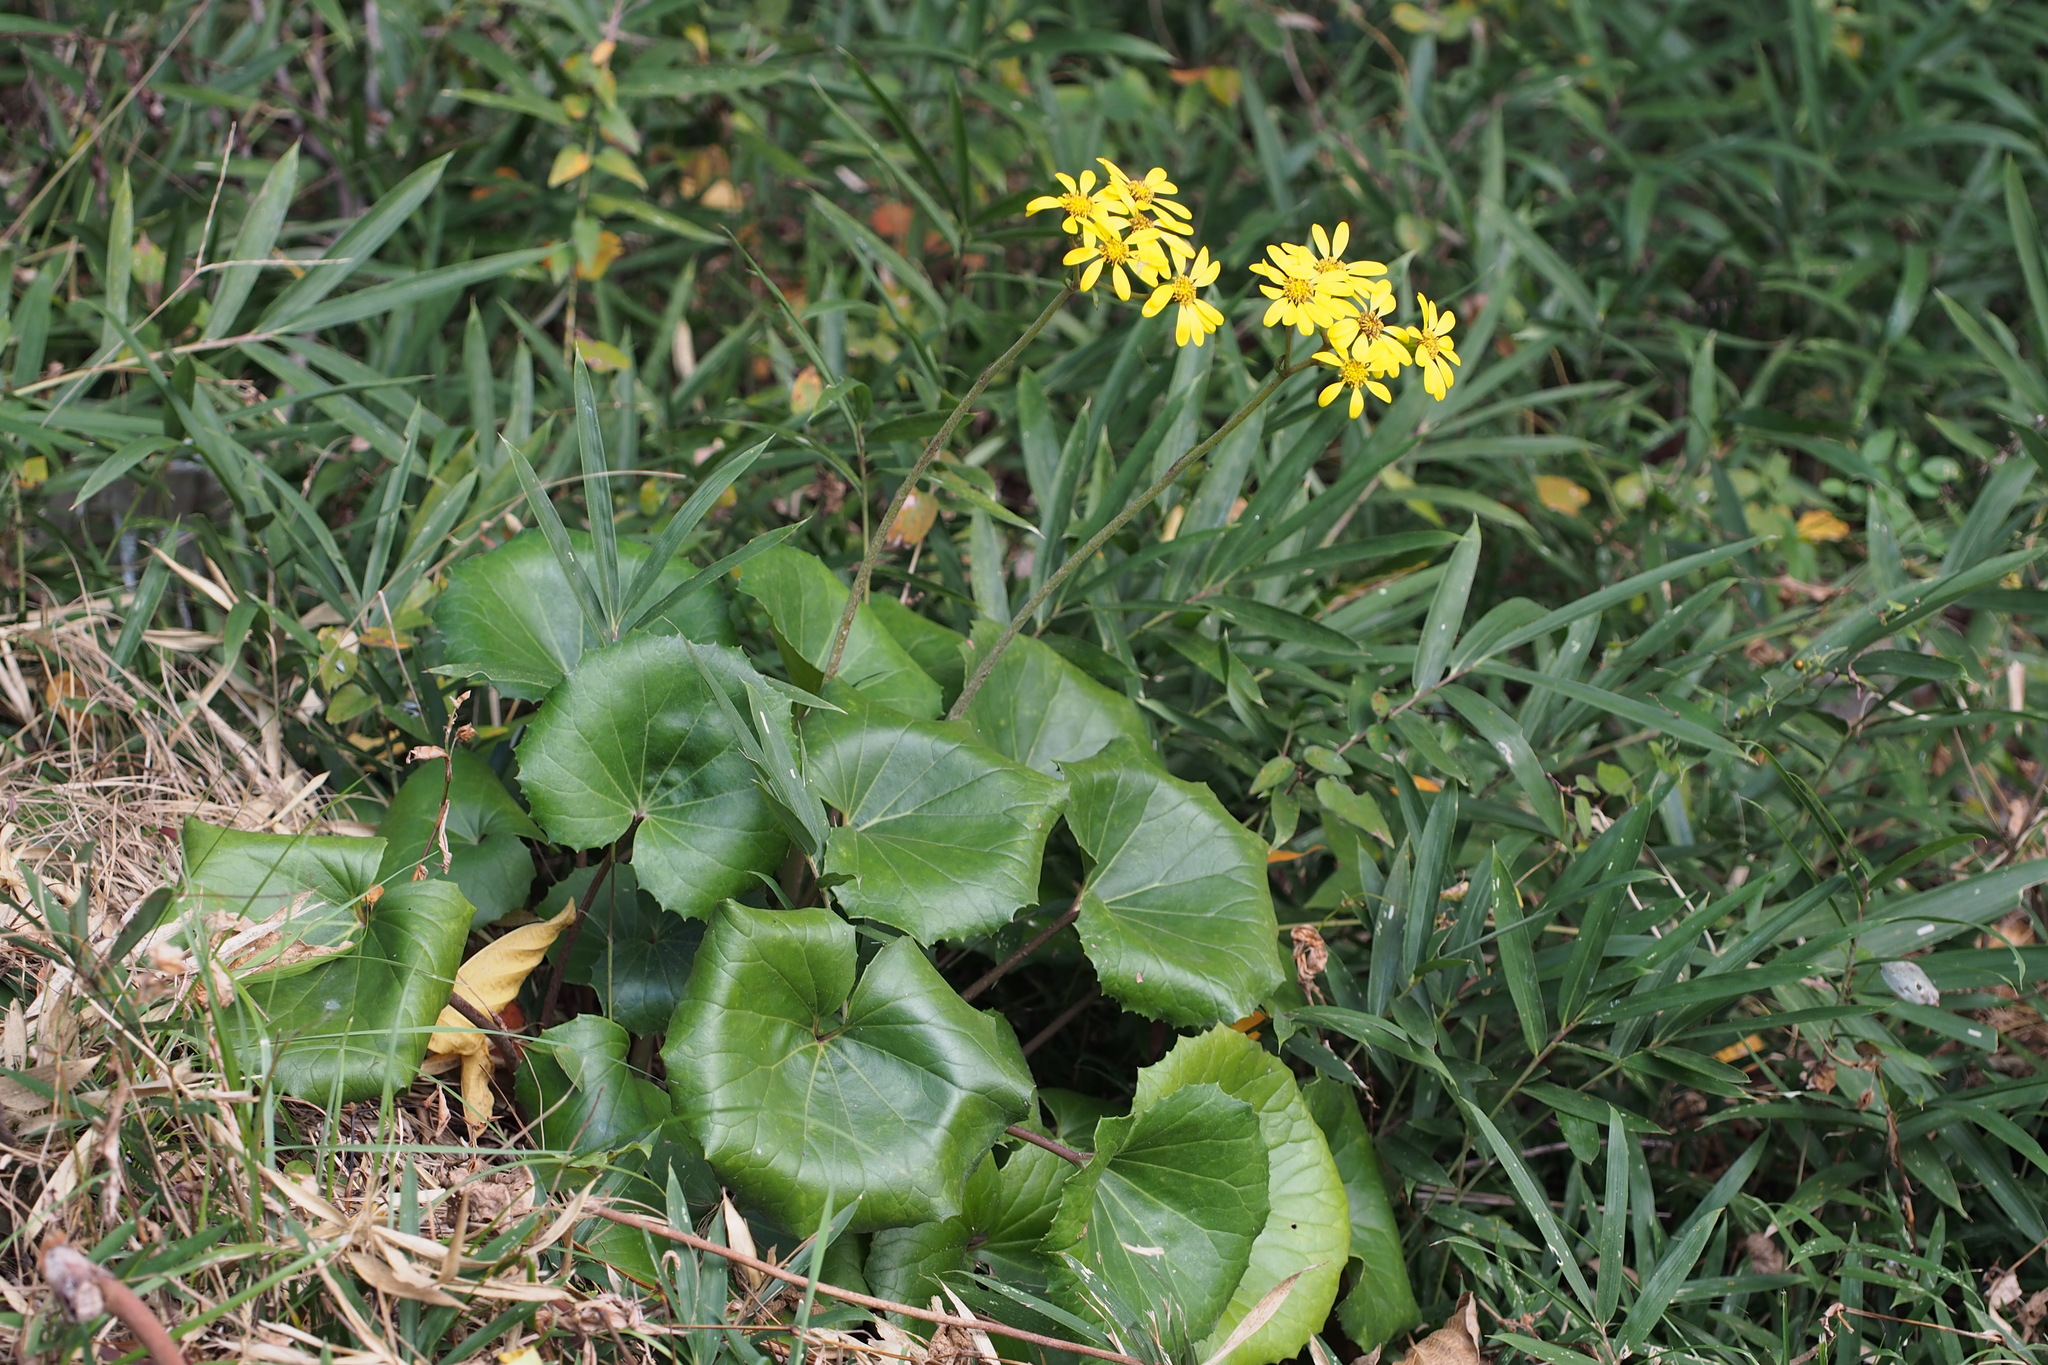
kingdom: Plantae
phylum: Tracheophyta
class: Magnoliopsida
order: Asterales
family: Asteraceae
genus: Farfugium
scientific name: Farfugium japonicum
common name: Leopardplant
